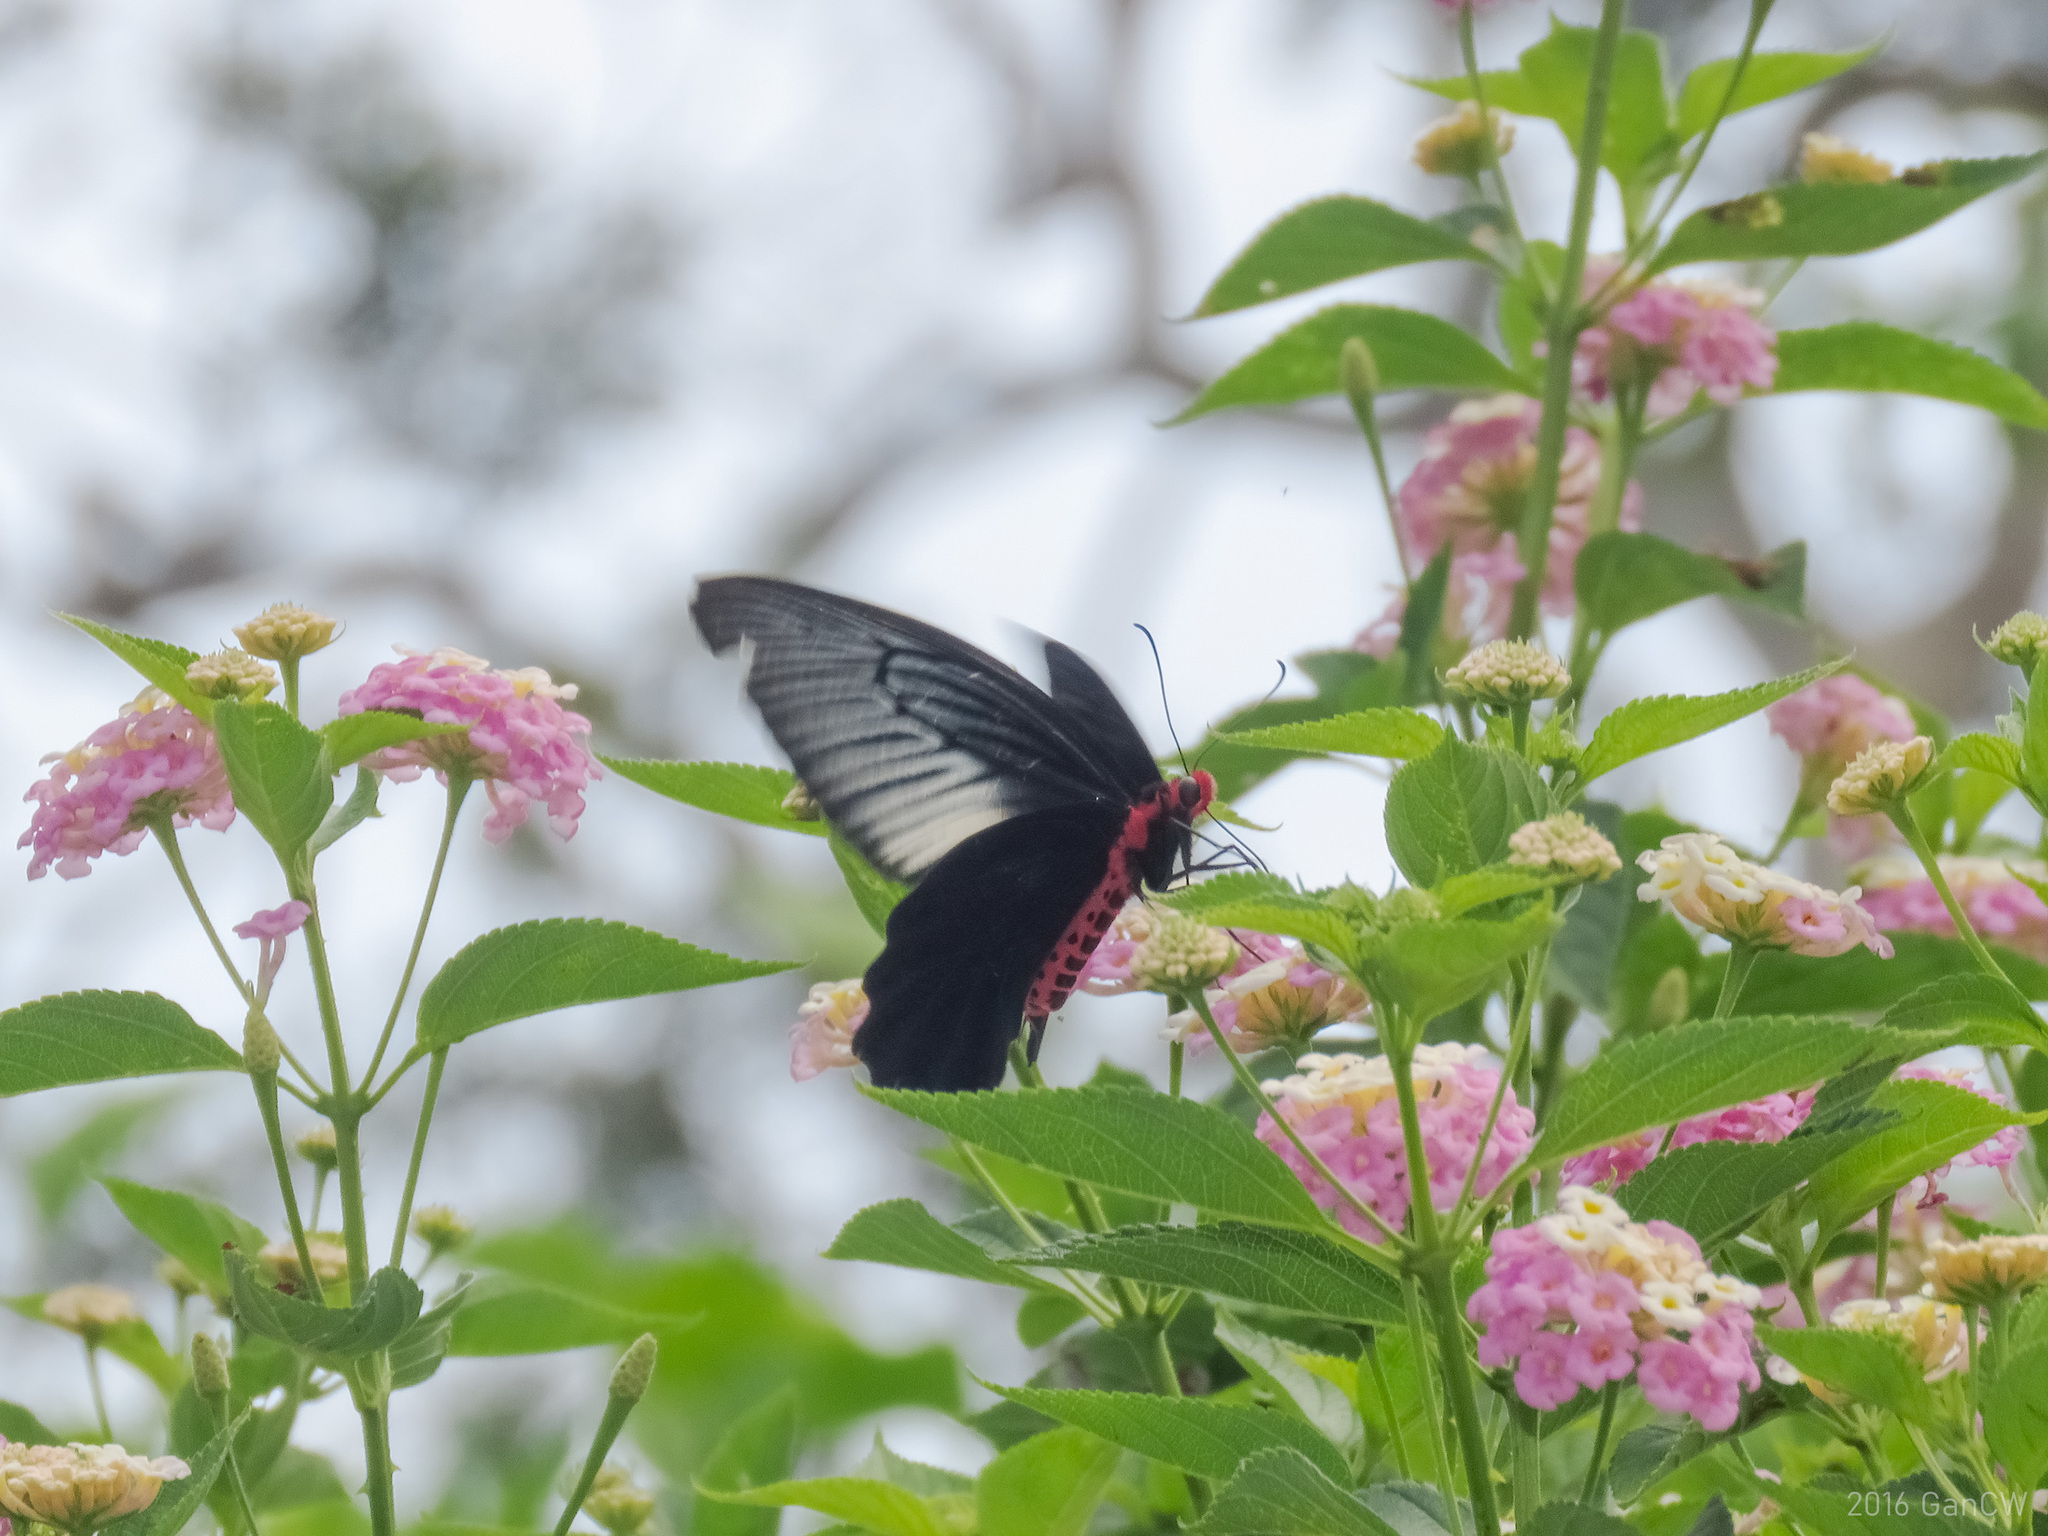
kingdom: Animalia
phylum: Arthropoda
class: Insecta
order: Lepidoptera
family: Papilionidae
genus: Atrophaneura
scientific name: Atrophaneura varuna
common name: Common batwing
